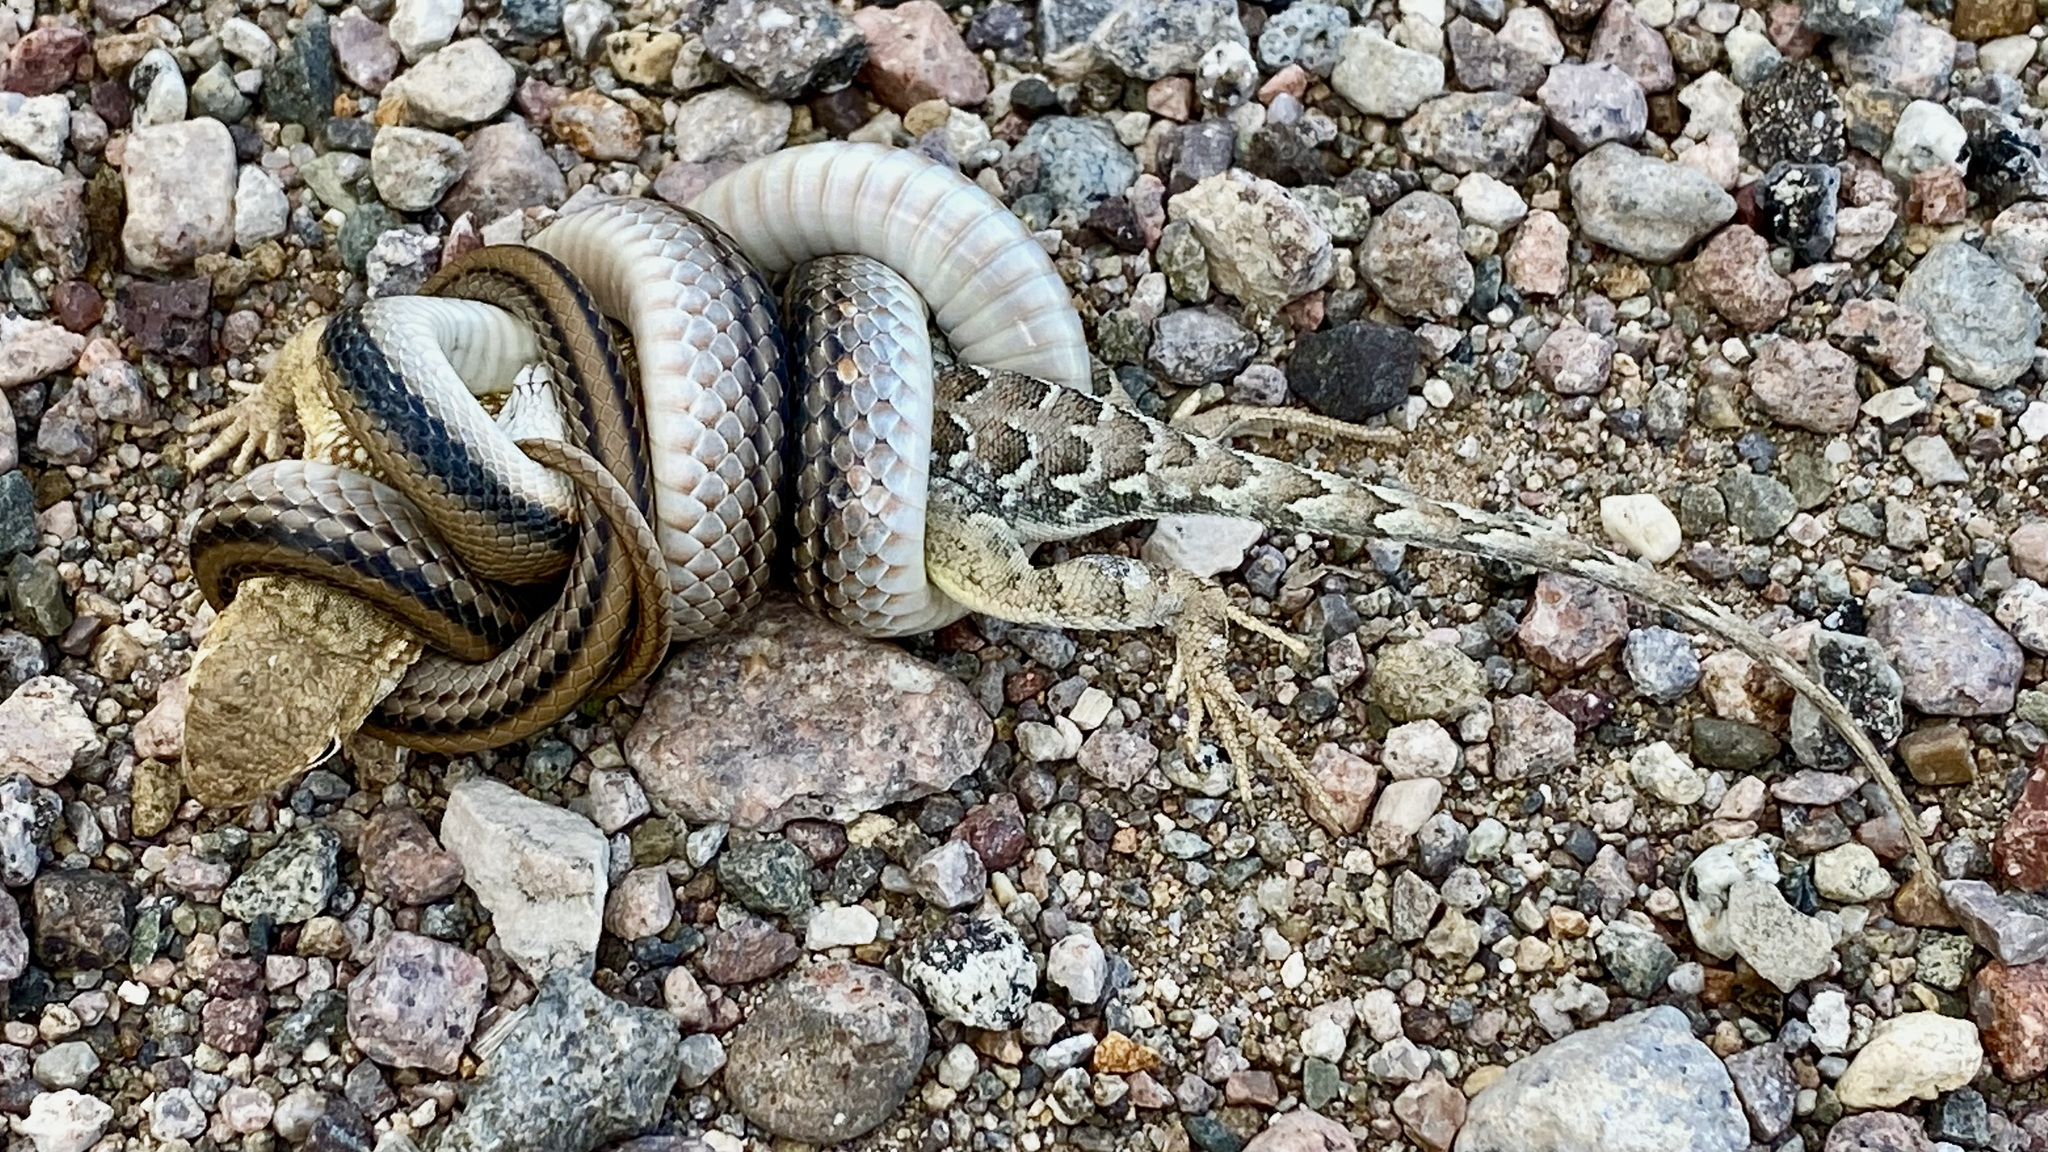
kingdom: Animalia
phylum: Chordata
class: Squamata
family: Phrynosomatidae
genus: Holbrookia
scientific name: Holbrookia elegans
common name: Elegant earless lizard
